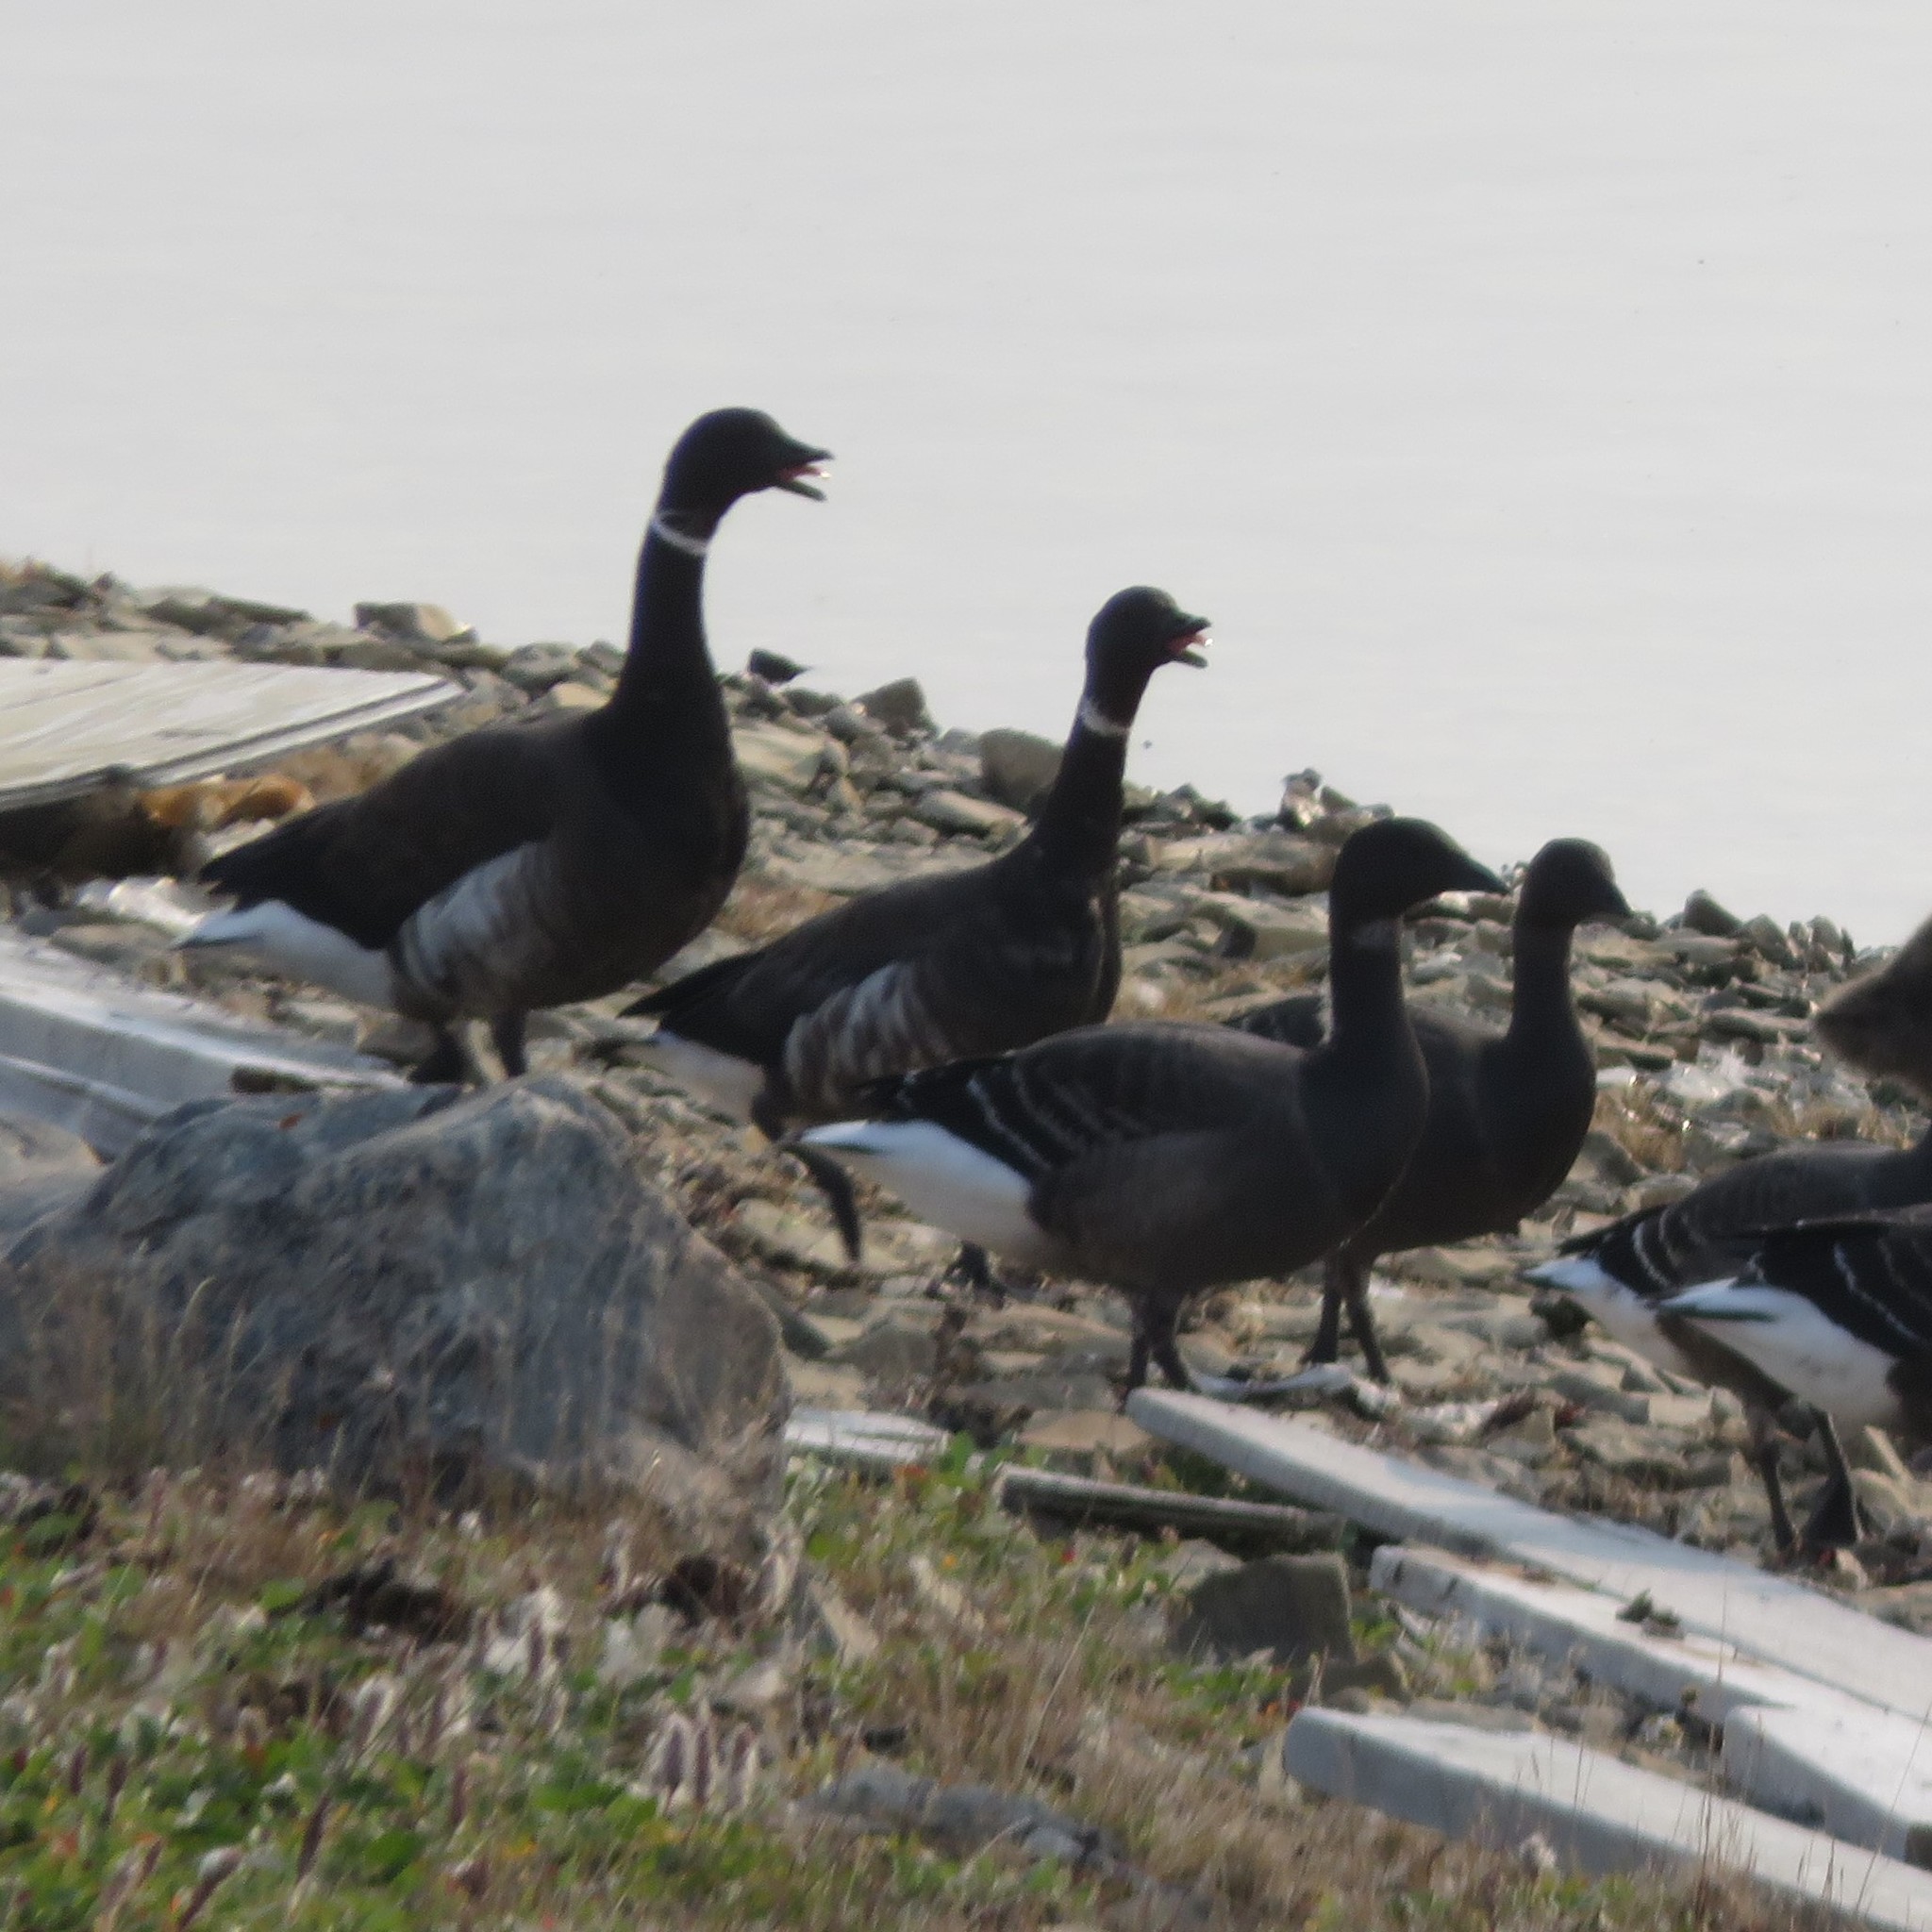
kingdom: Animalia
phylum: Chordata
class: Aves
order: Anseriformes
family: Anatidae
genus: Branta
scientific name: Branta bernicla
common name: Brant goose
